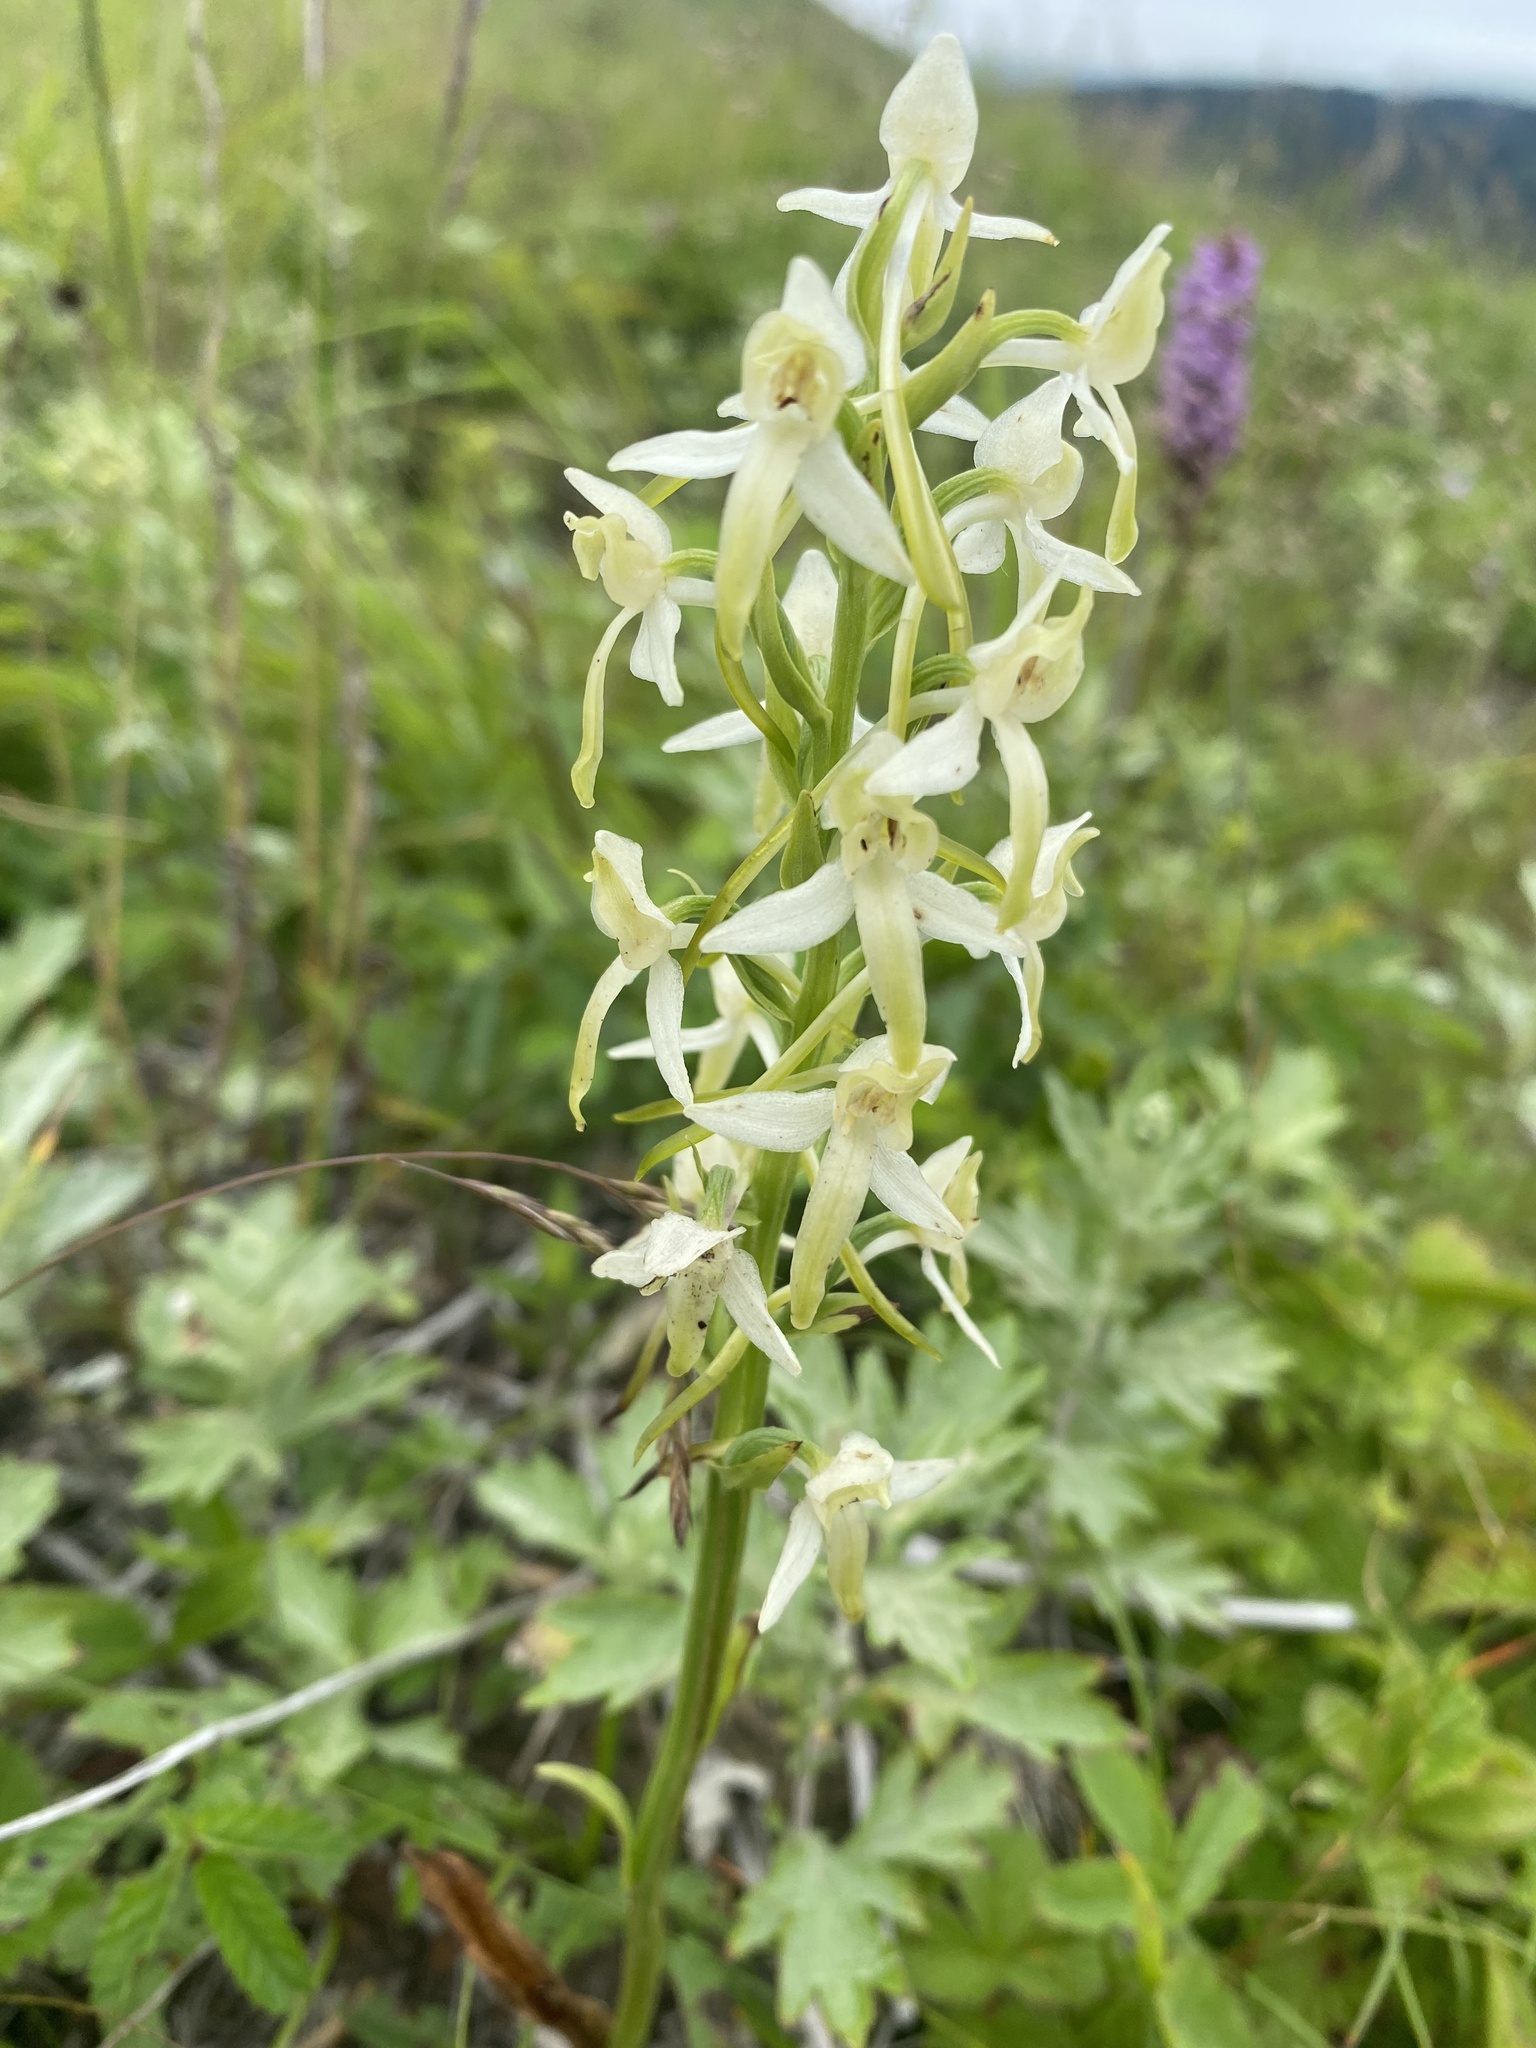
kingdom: Plantae
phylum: Tracheophyta
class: Liliopsida
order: Asparagales
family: Orchidaceae
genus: Platanthera
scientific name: Platanthera metabifolia
